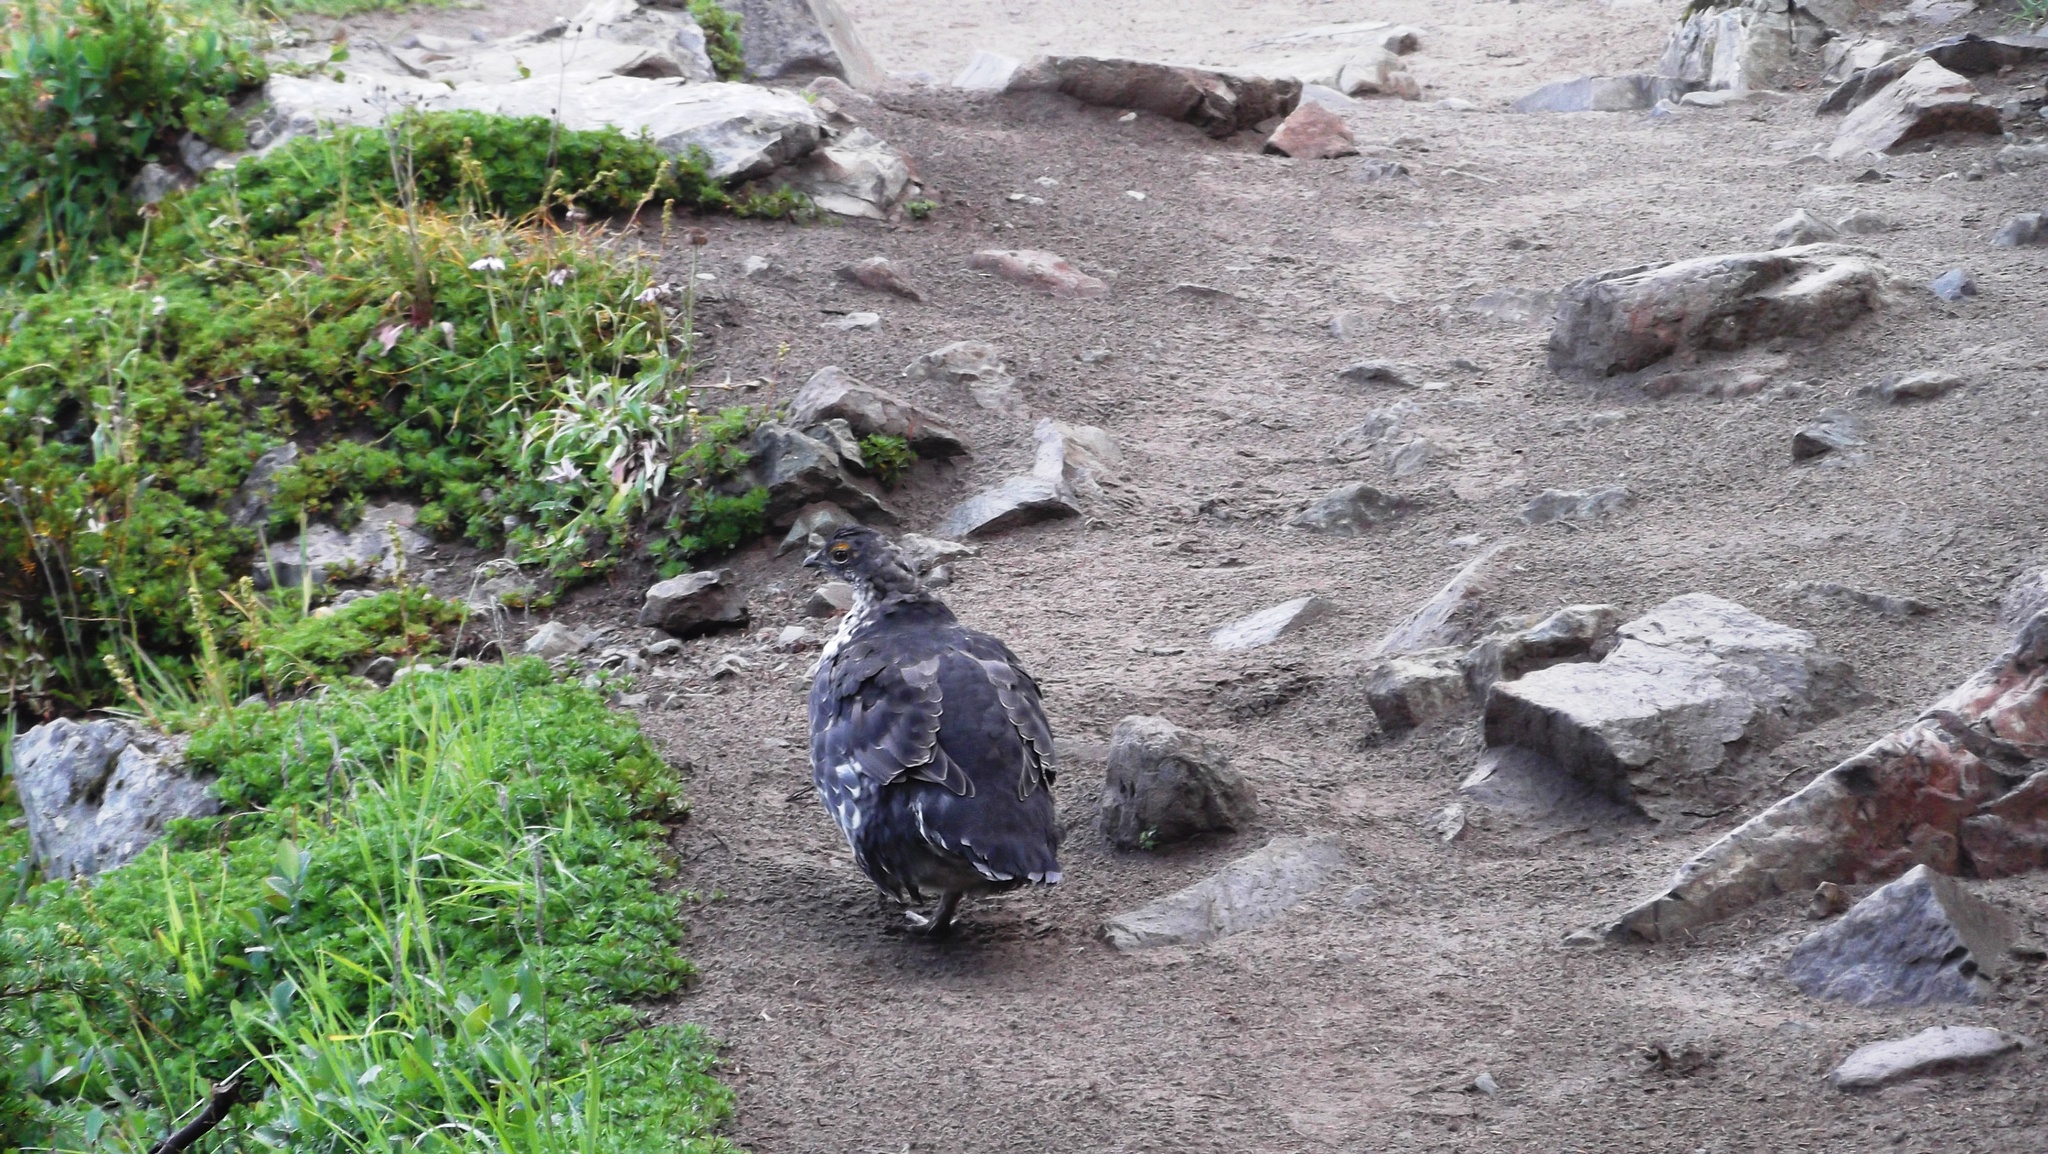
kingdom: Animalia
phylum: Chordata
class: Aves
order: Galliformes
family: Phasianidae
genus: Dendragapus
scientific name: Dendragapus fuliginosus
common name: Sooty grouse
